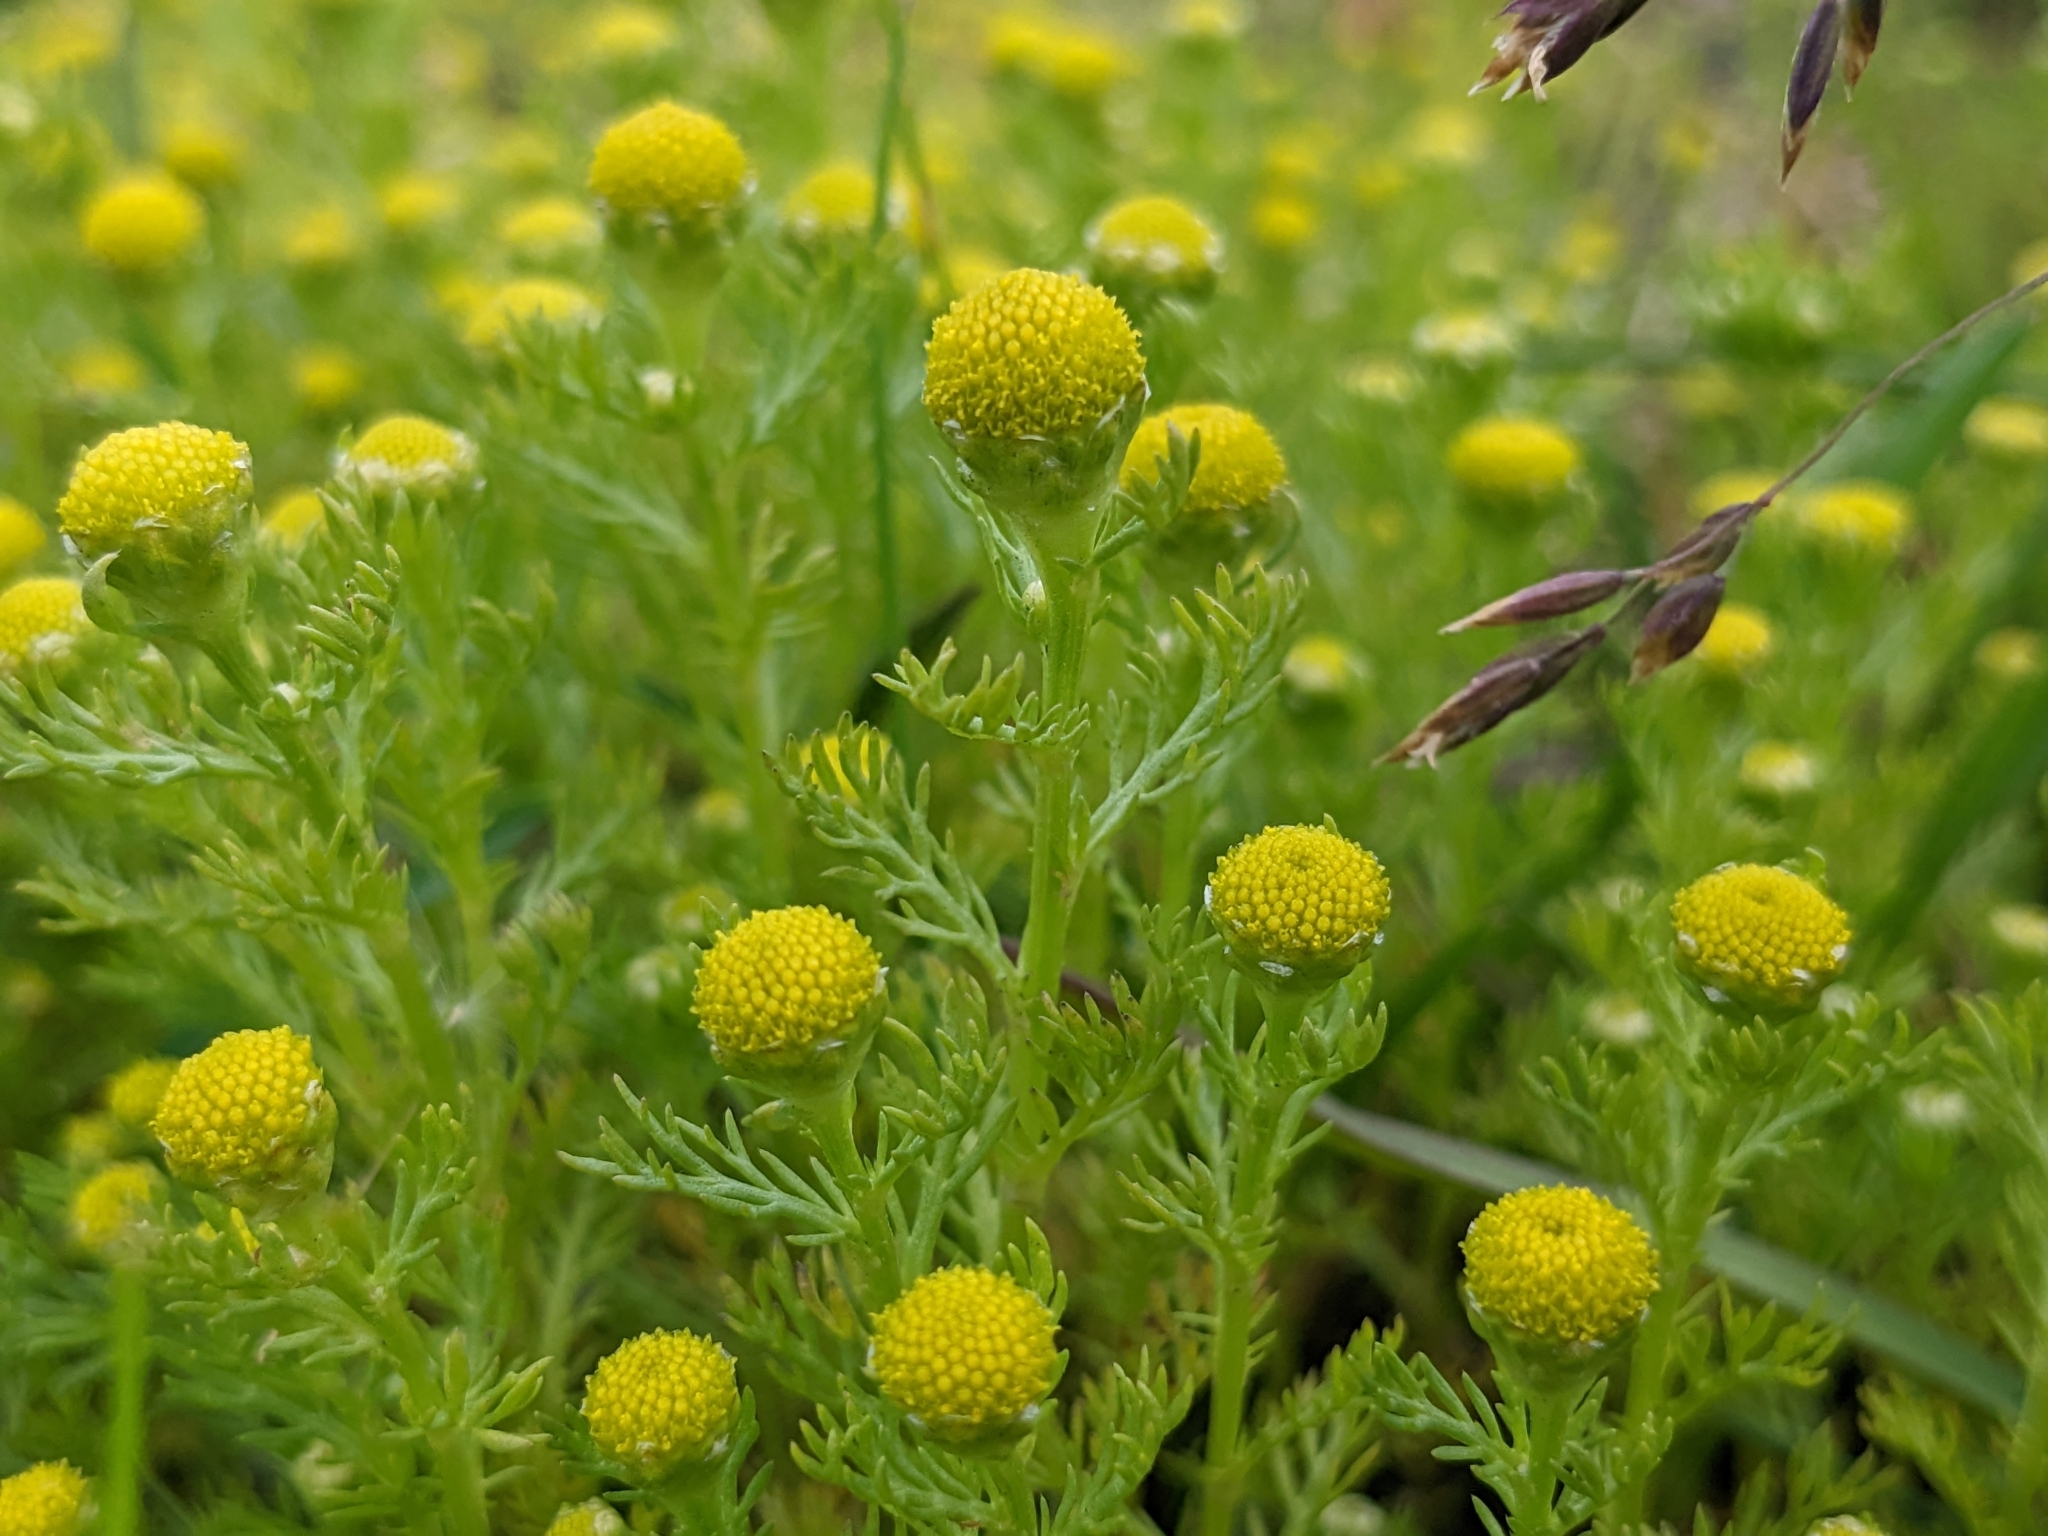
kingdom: Plantae
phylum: Tracheophyta
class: Magnoliopsida
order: Asterales
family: Asteraceae
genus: Matricaria
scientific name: Matricaria discoidea
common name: Disc mayweed
